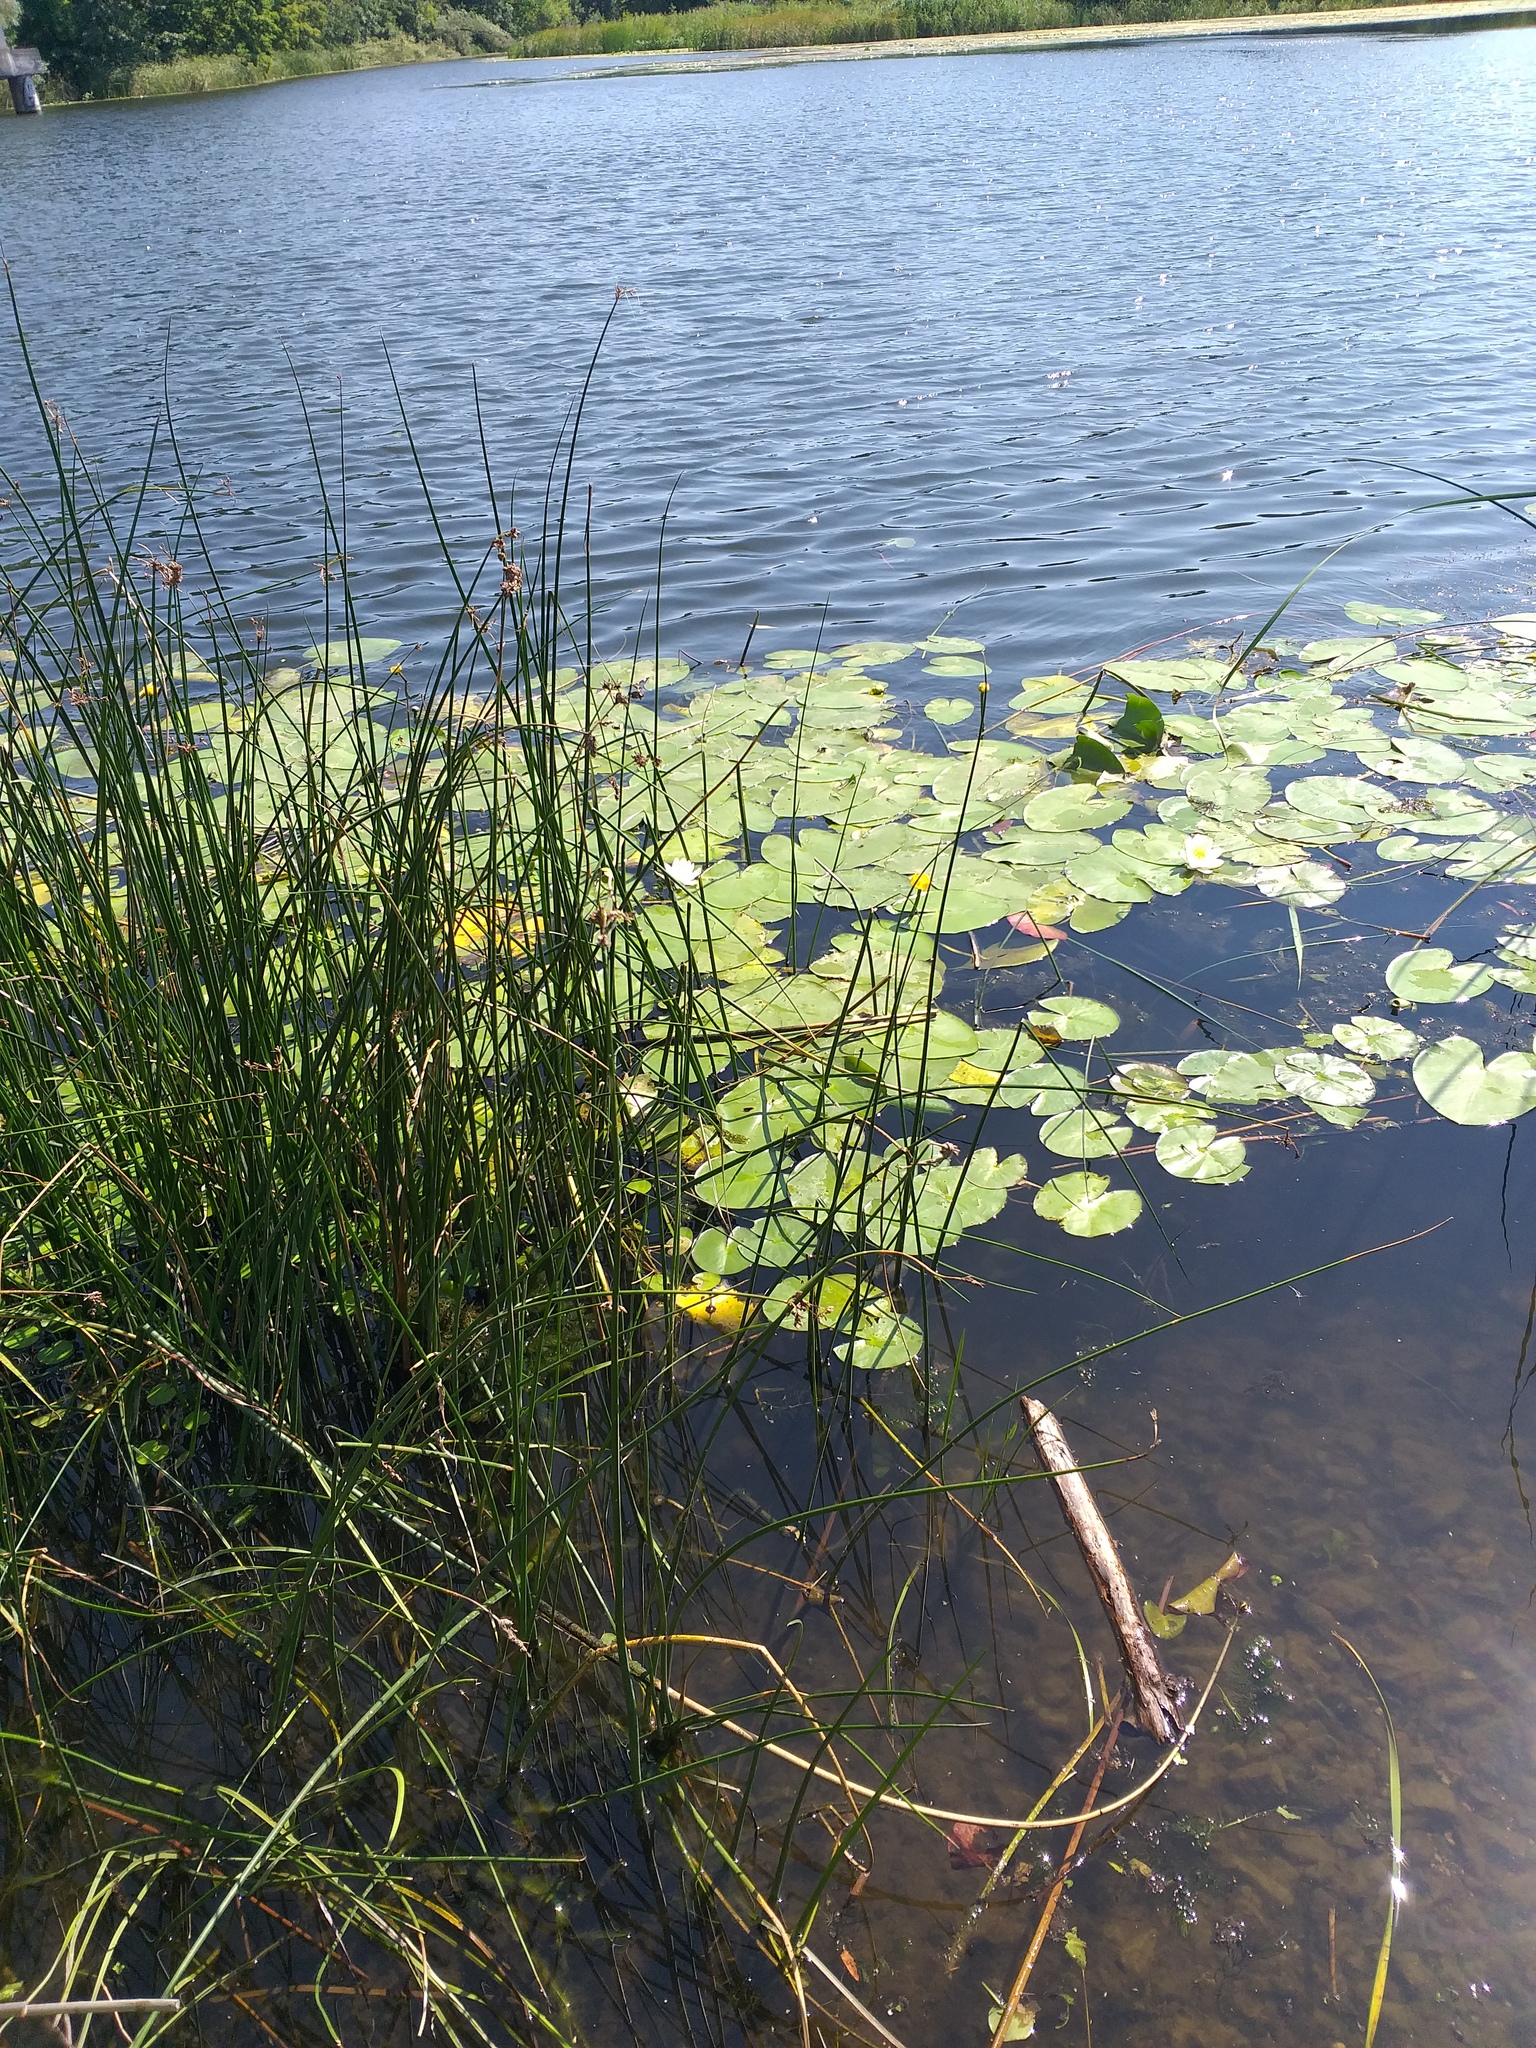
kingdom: Plantae
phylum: Tracheophyta
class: Magnoliopsida
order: Nymphaeales
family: Nymphaeaceae
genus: Nuphar
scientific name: Nuphar lutea
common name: Yellow water-lily
